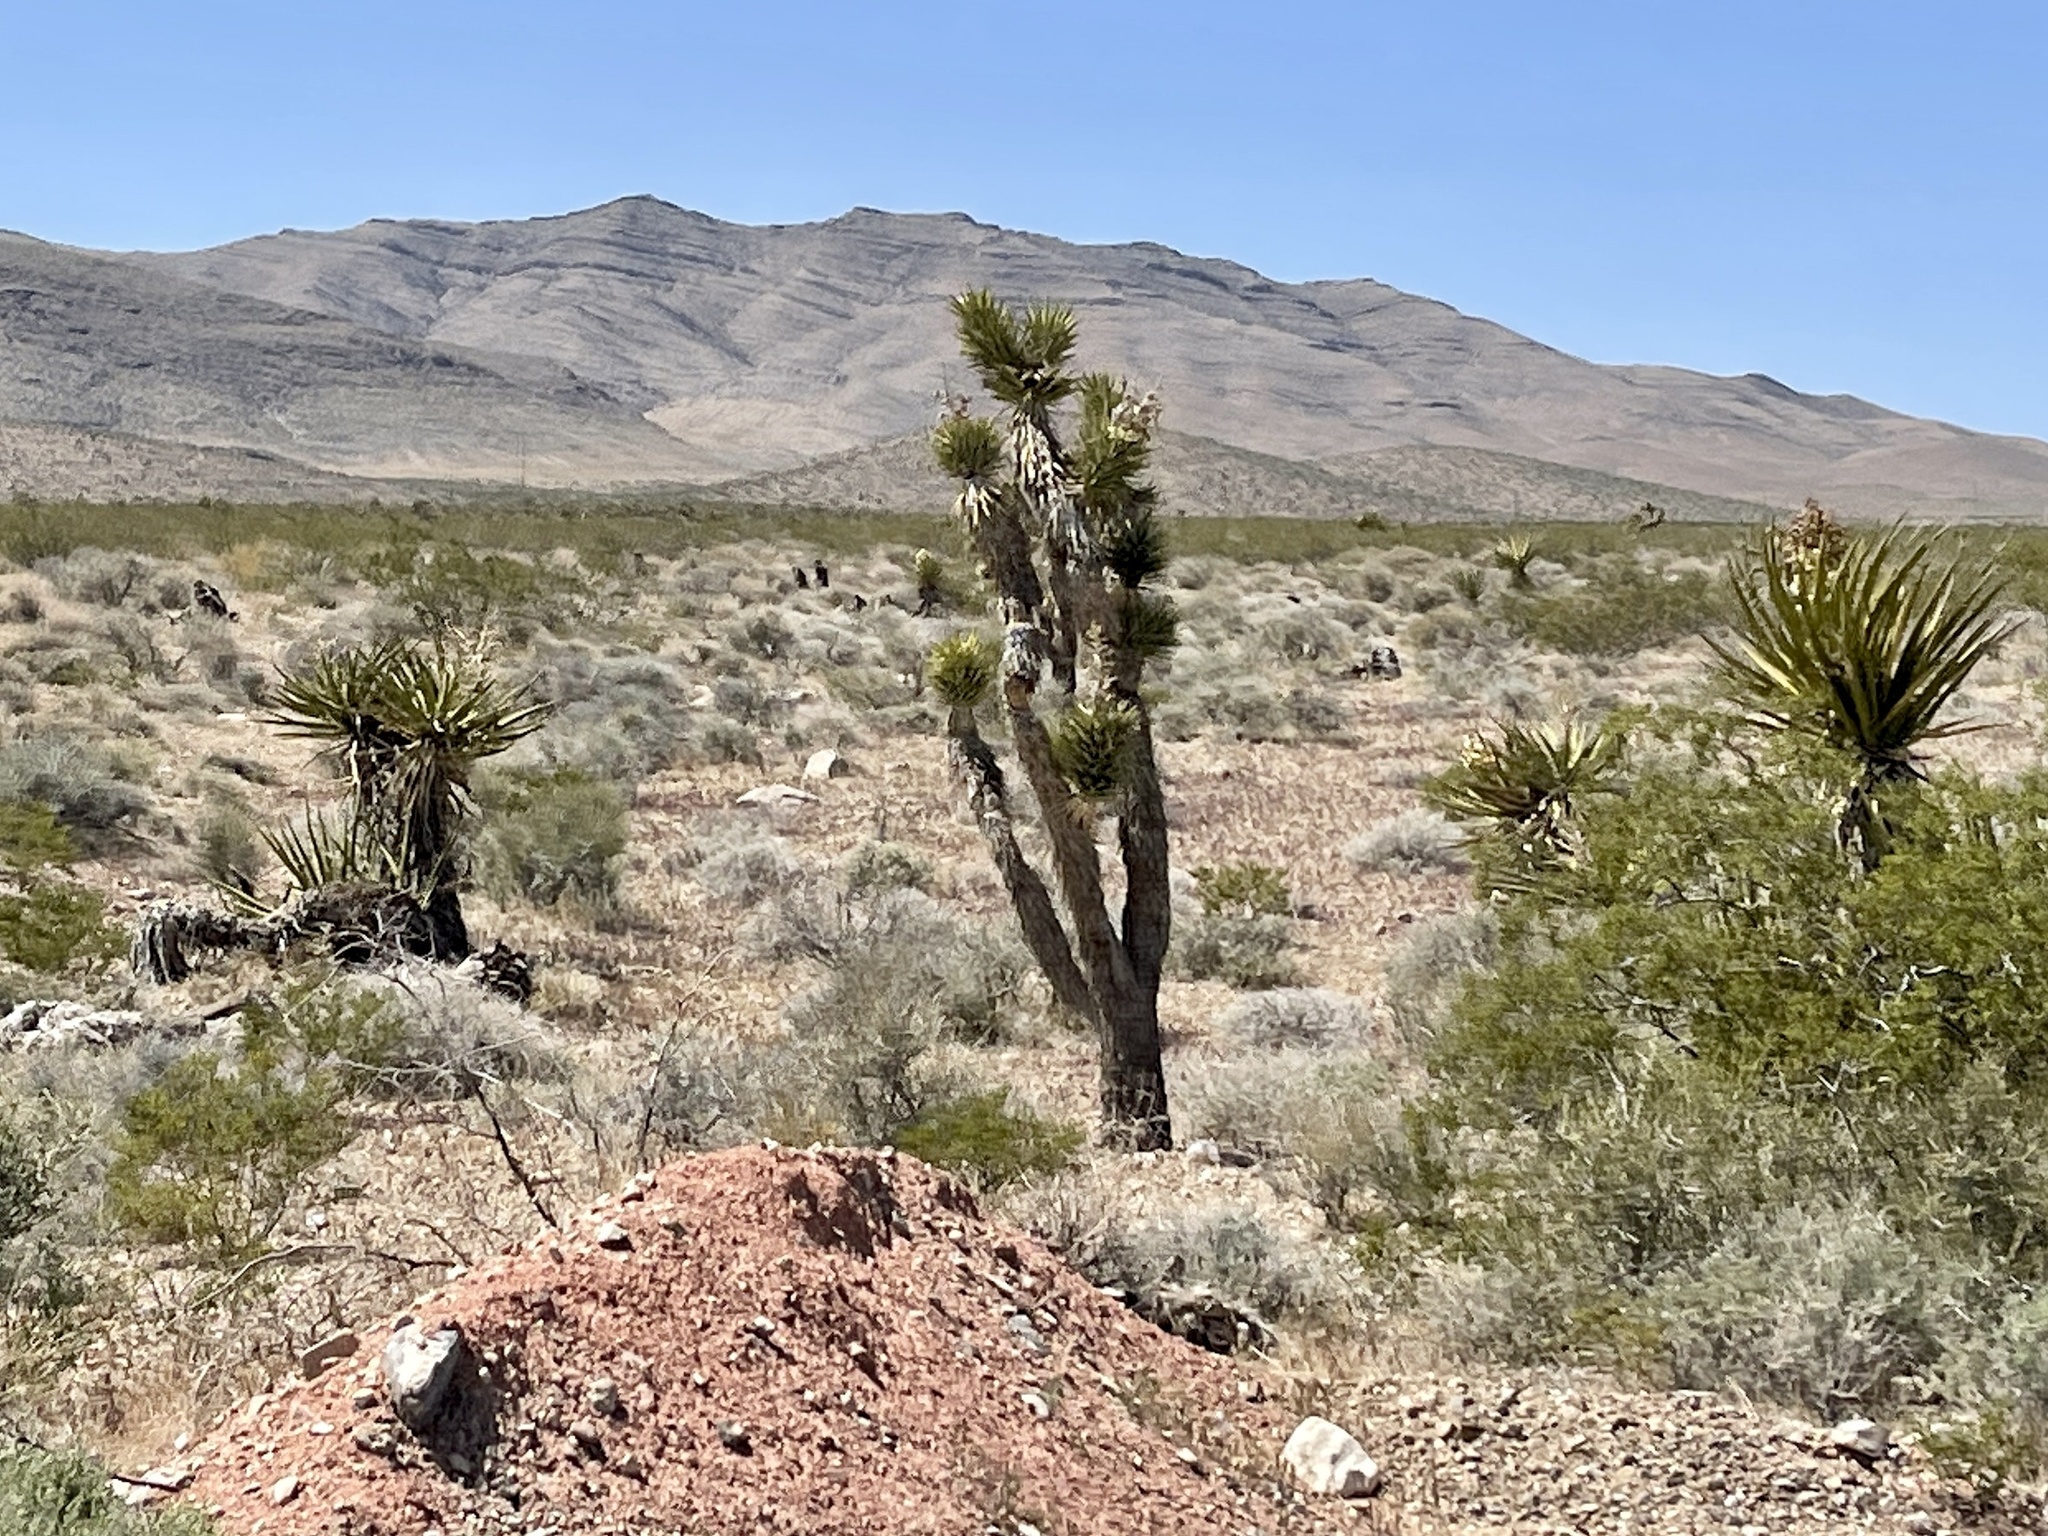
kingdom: Plantae
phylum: Tracheophyta
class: Liliopsida
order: Asparagales
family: Asparagaceae
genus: Yucca
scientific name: Yucca brevifolia
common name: Joshua tree
